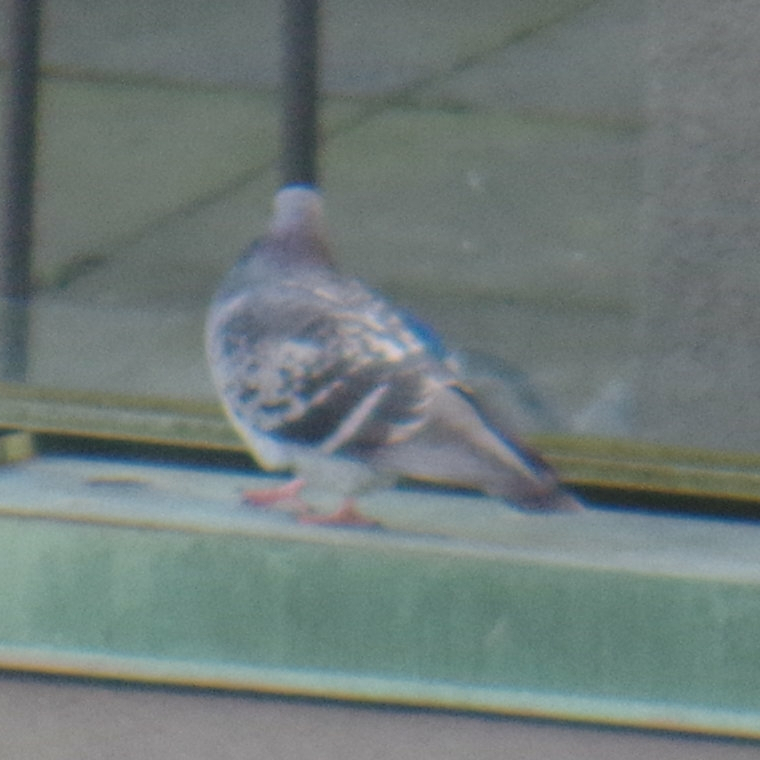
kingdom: Animalia
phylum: Chordata
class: Aves
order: Columbiformes
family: Columbidae
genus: Columba
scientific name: Columba livia
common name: Rock pigeon
